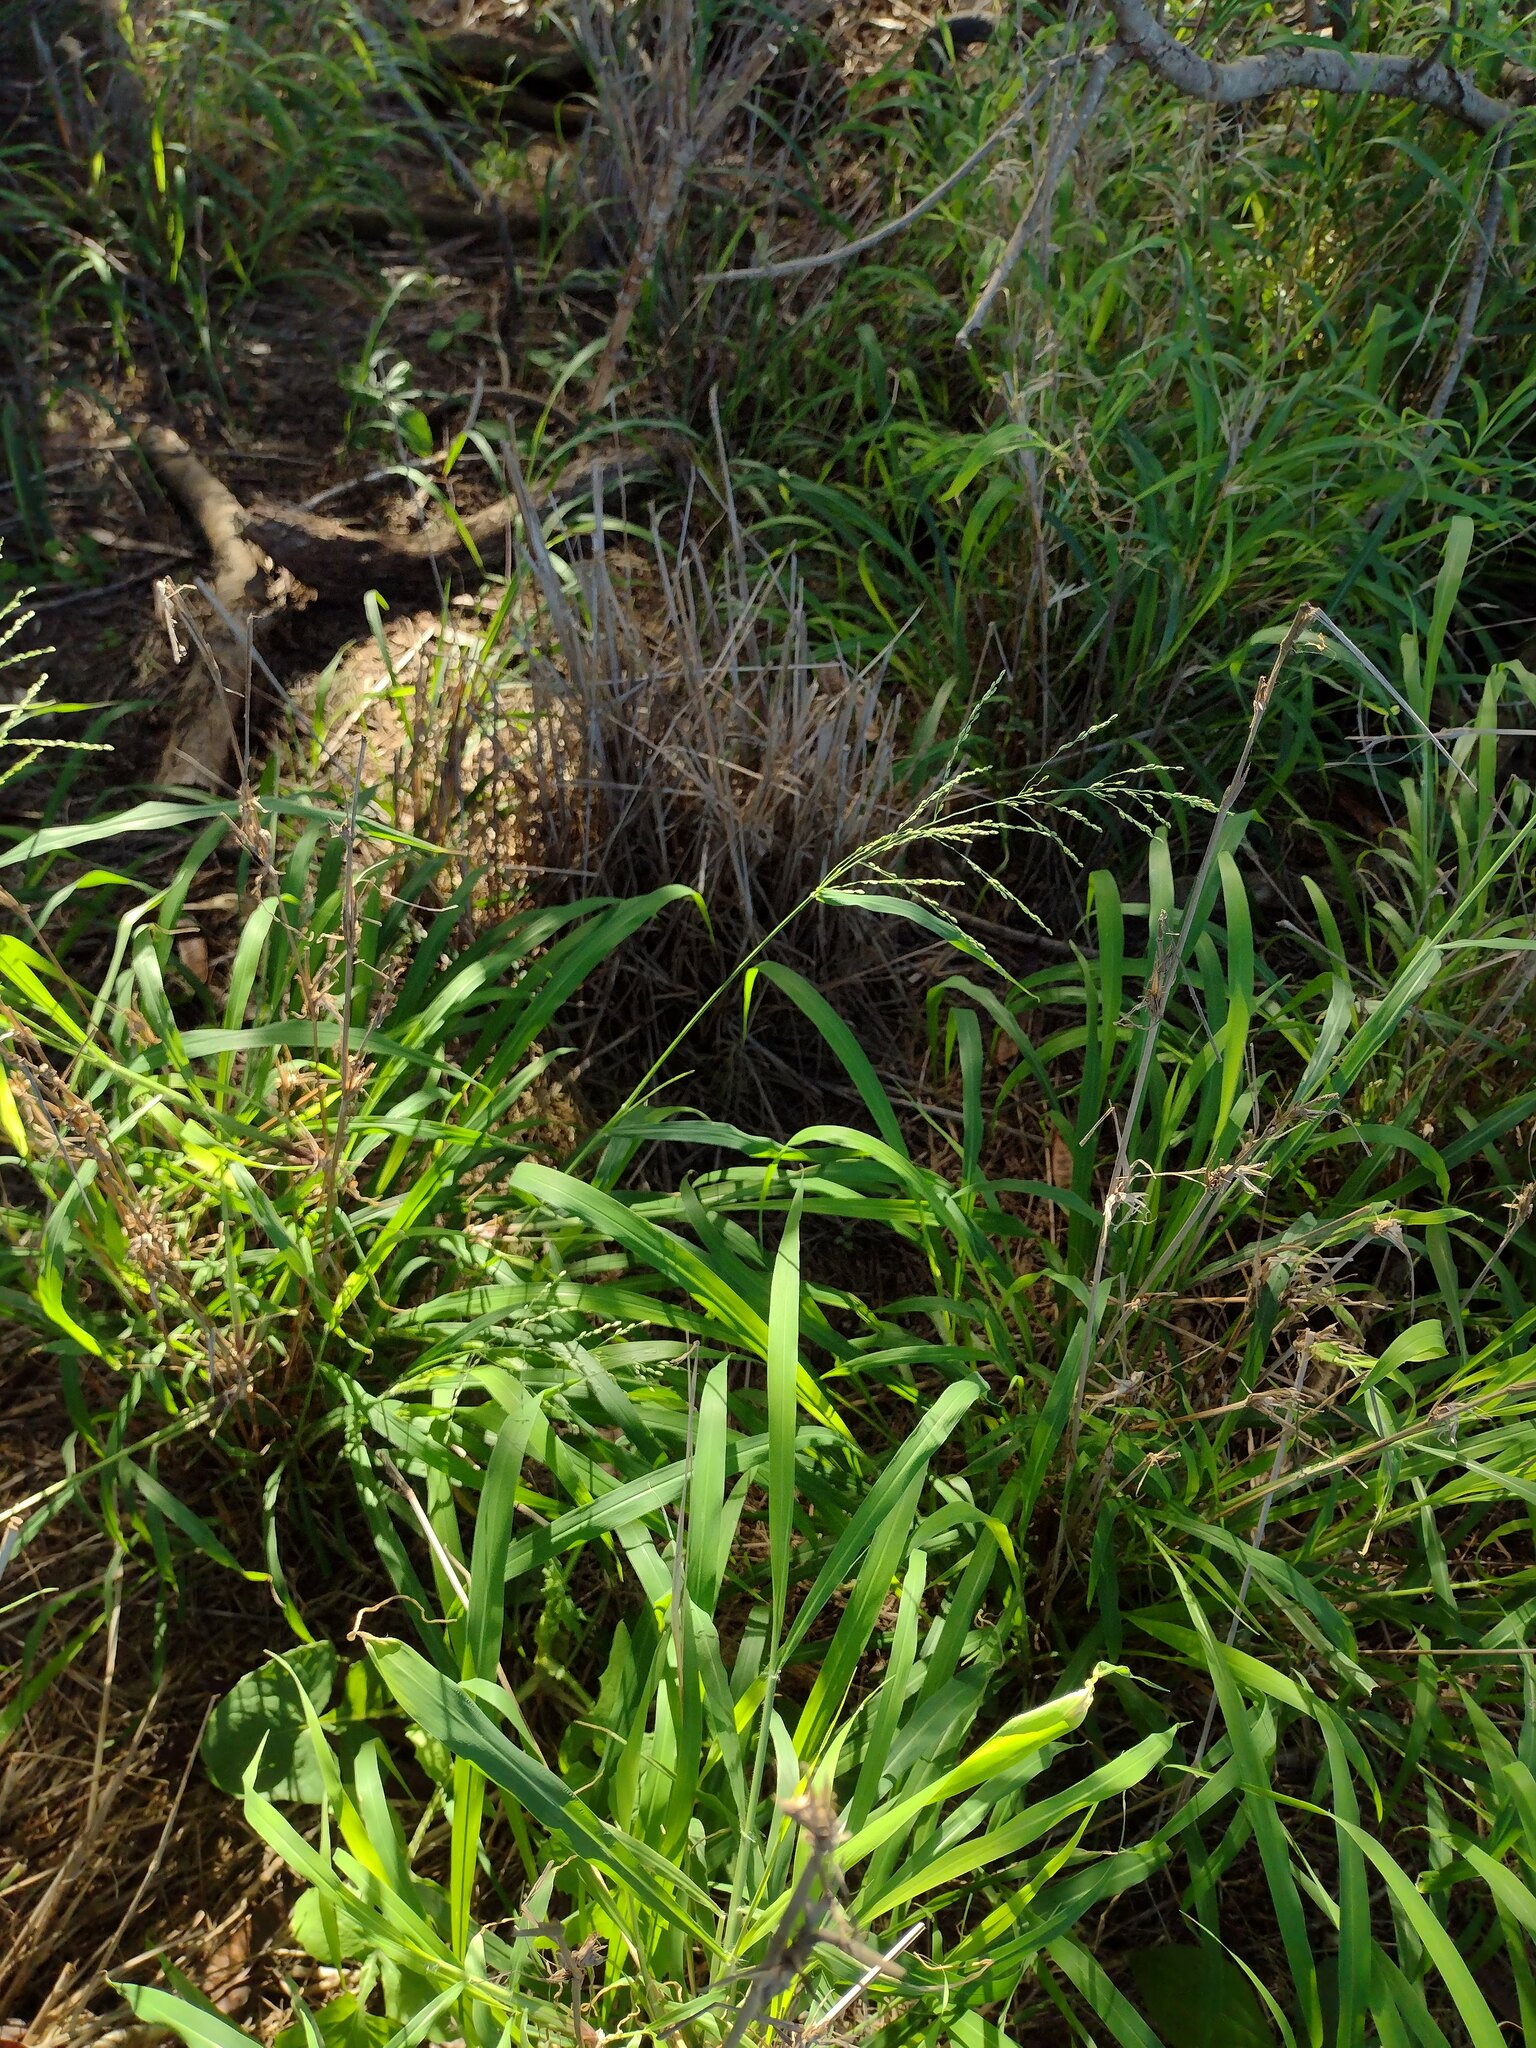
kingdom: Plantae
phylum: Tracheophyta
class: Liliopsida
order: Poales
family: Poaceae
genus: Megathyrsus
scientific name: Megathyrsus maximus
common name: Guineagrass
